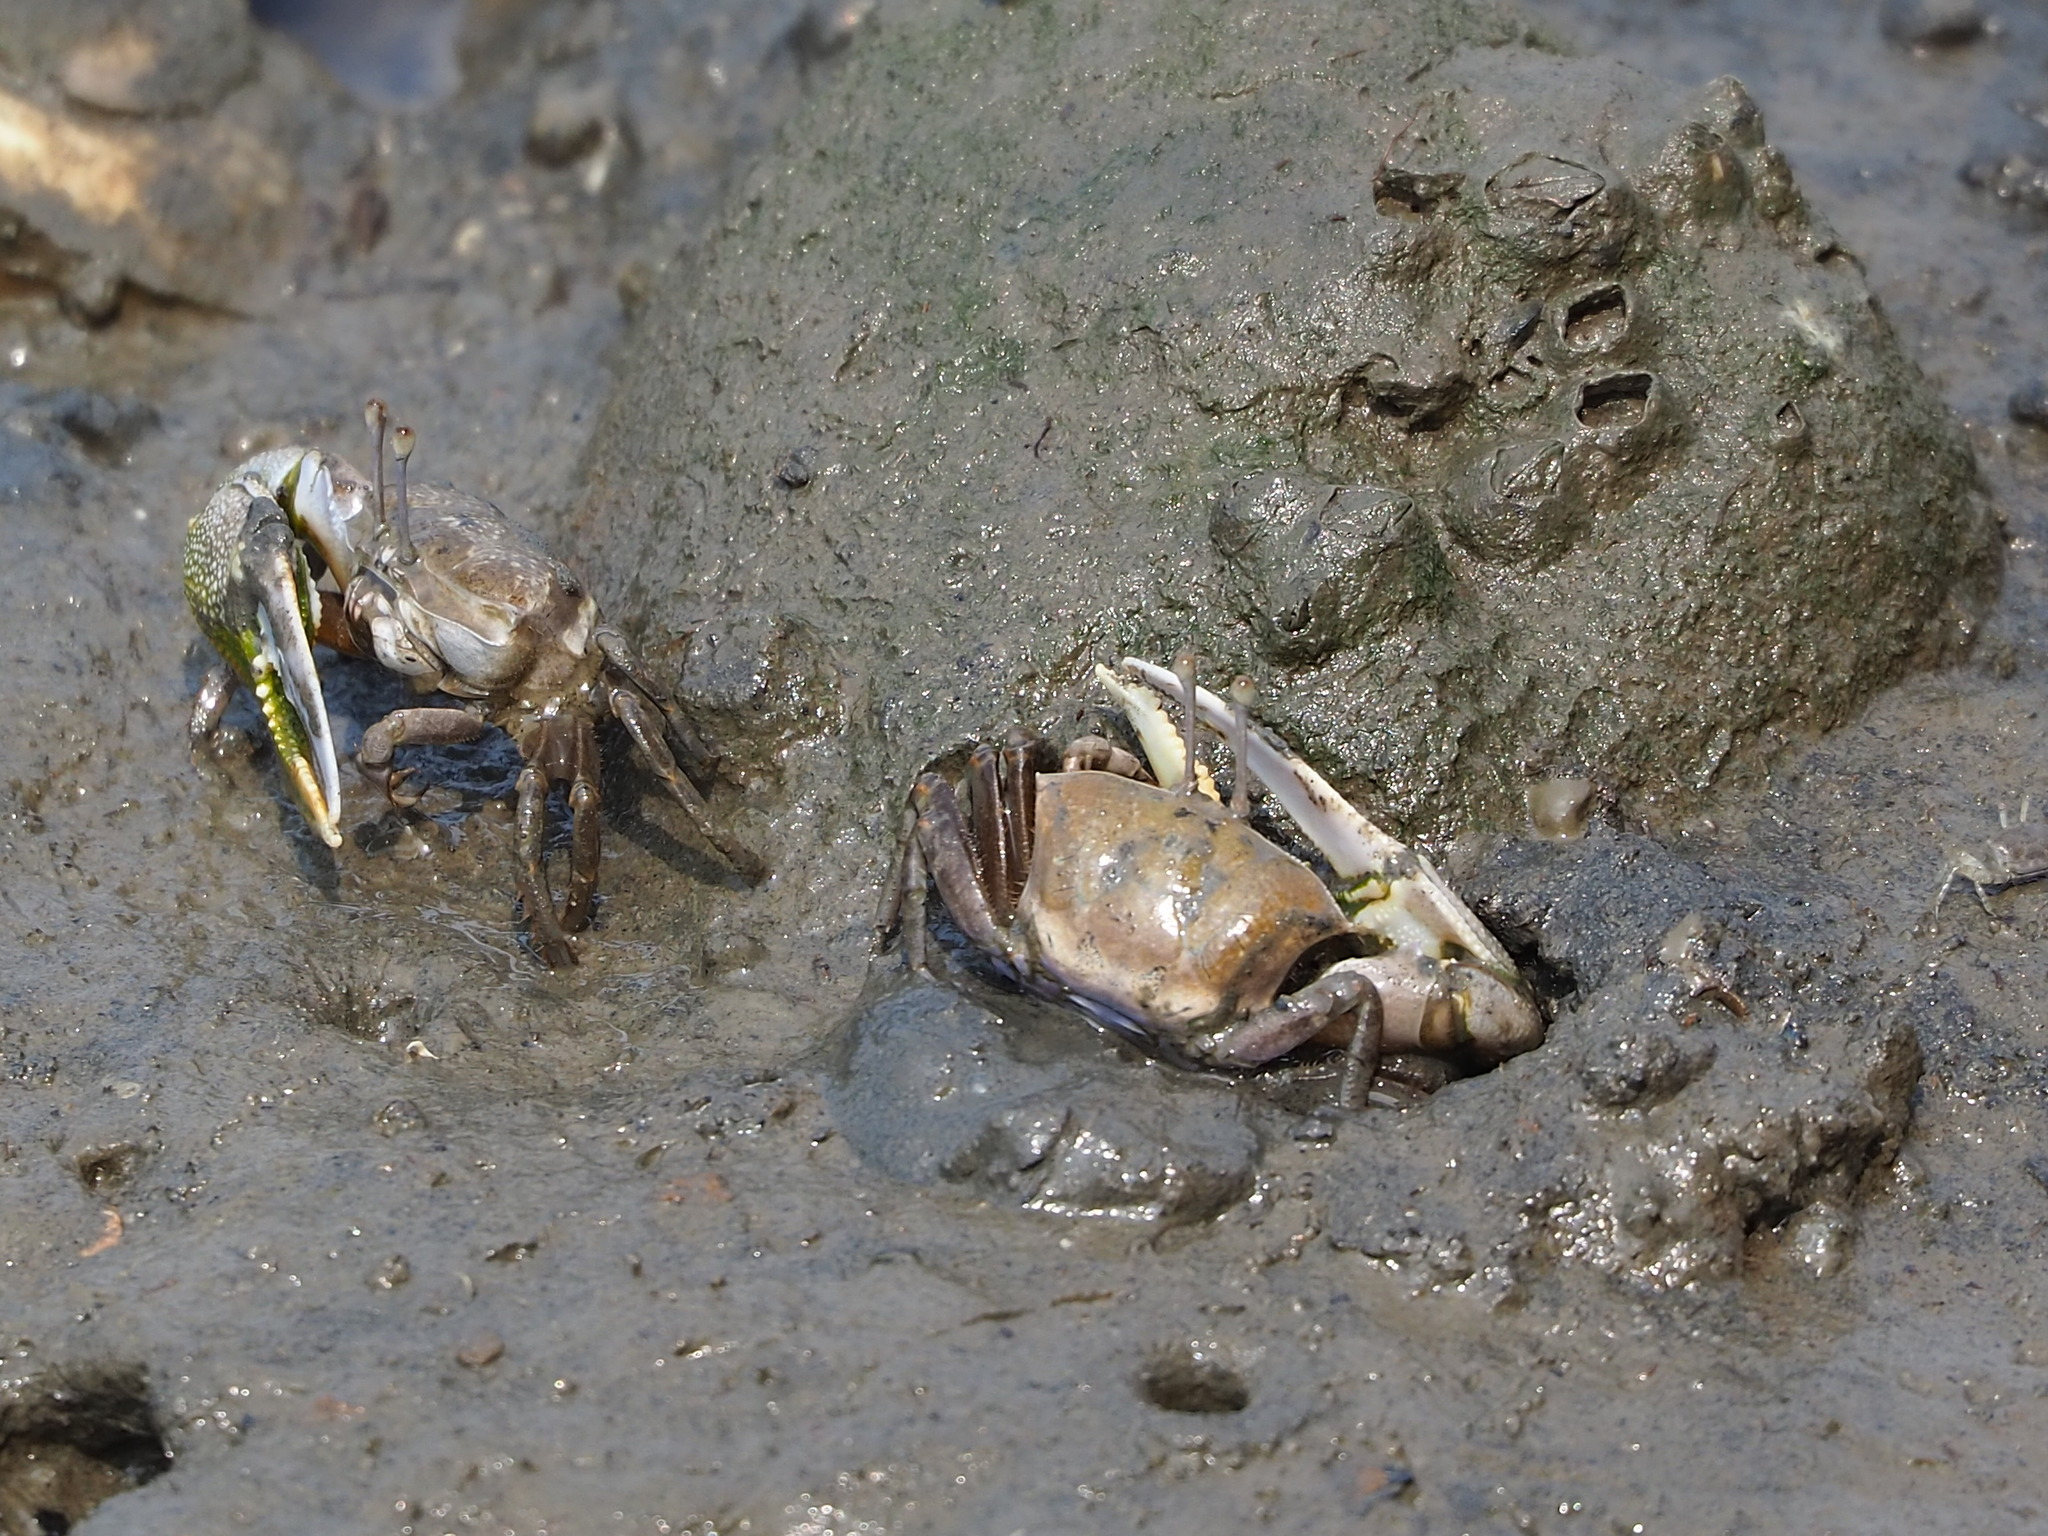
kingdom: Animalia
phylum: Arthropoda
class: Malacostraca
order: Decapoda
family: Ocypodidae
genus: Gelasimus
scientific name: Gelasimus borealis
